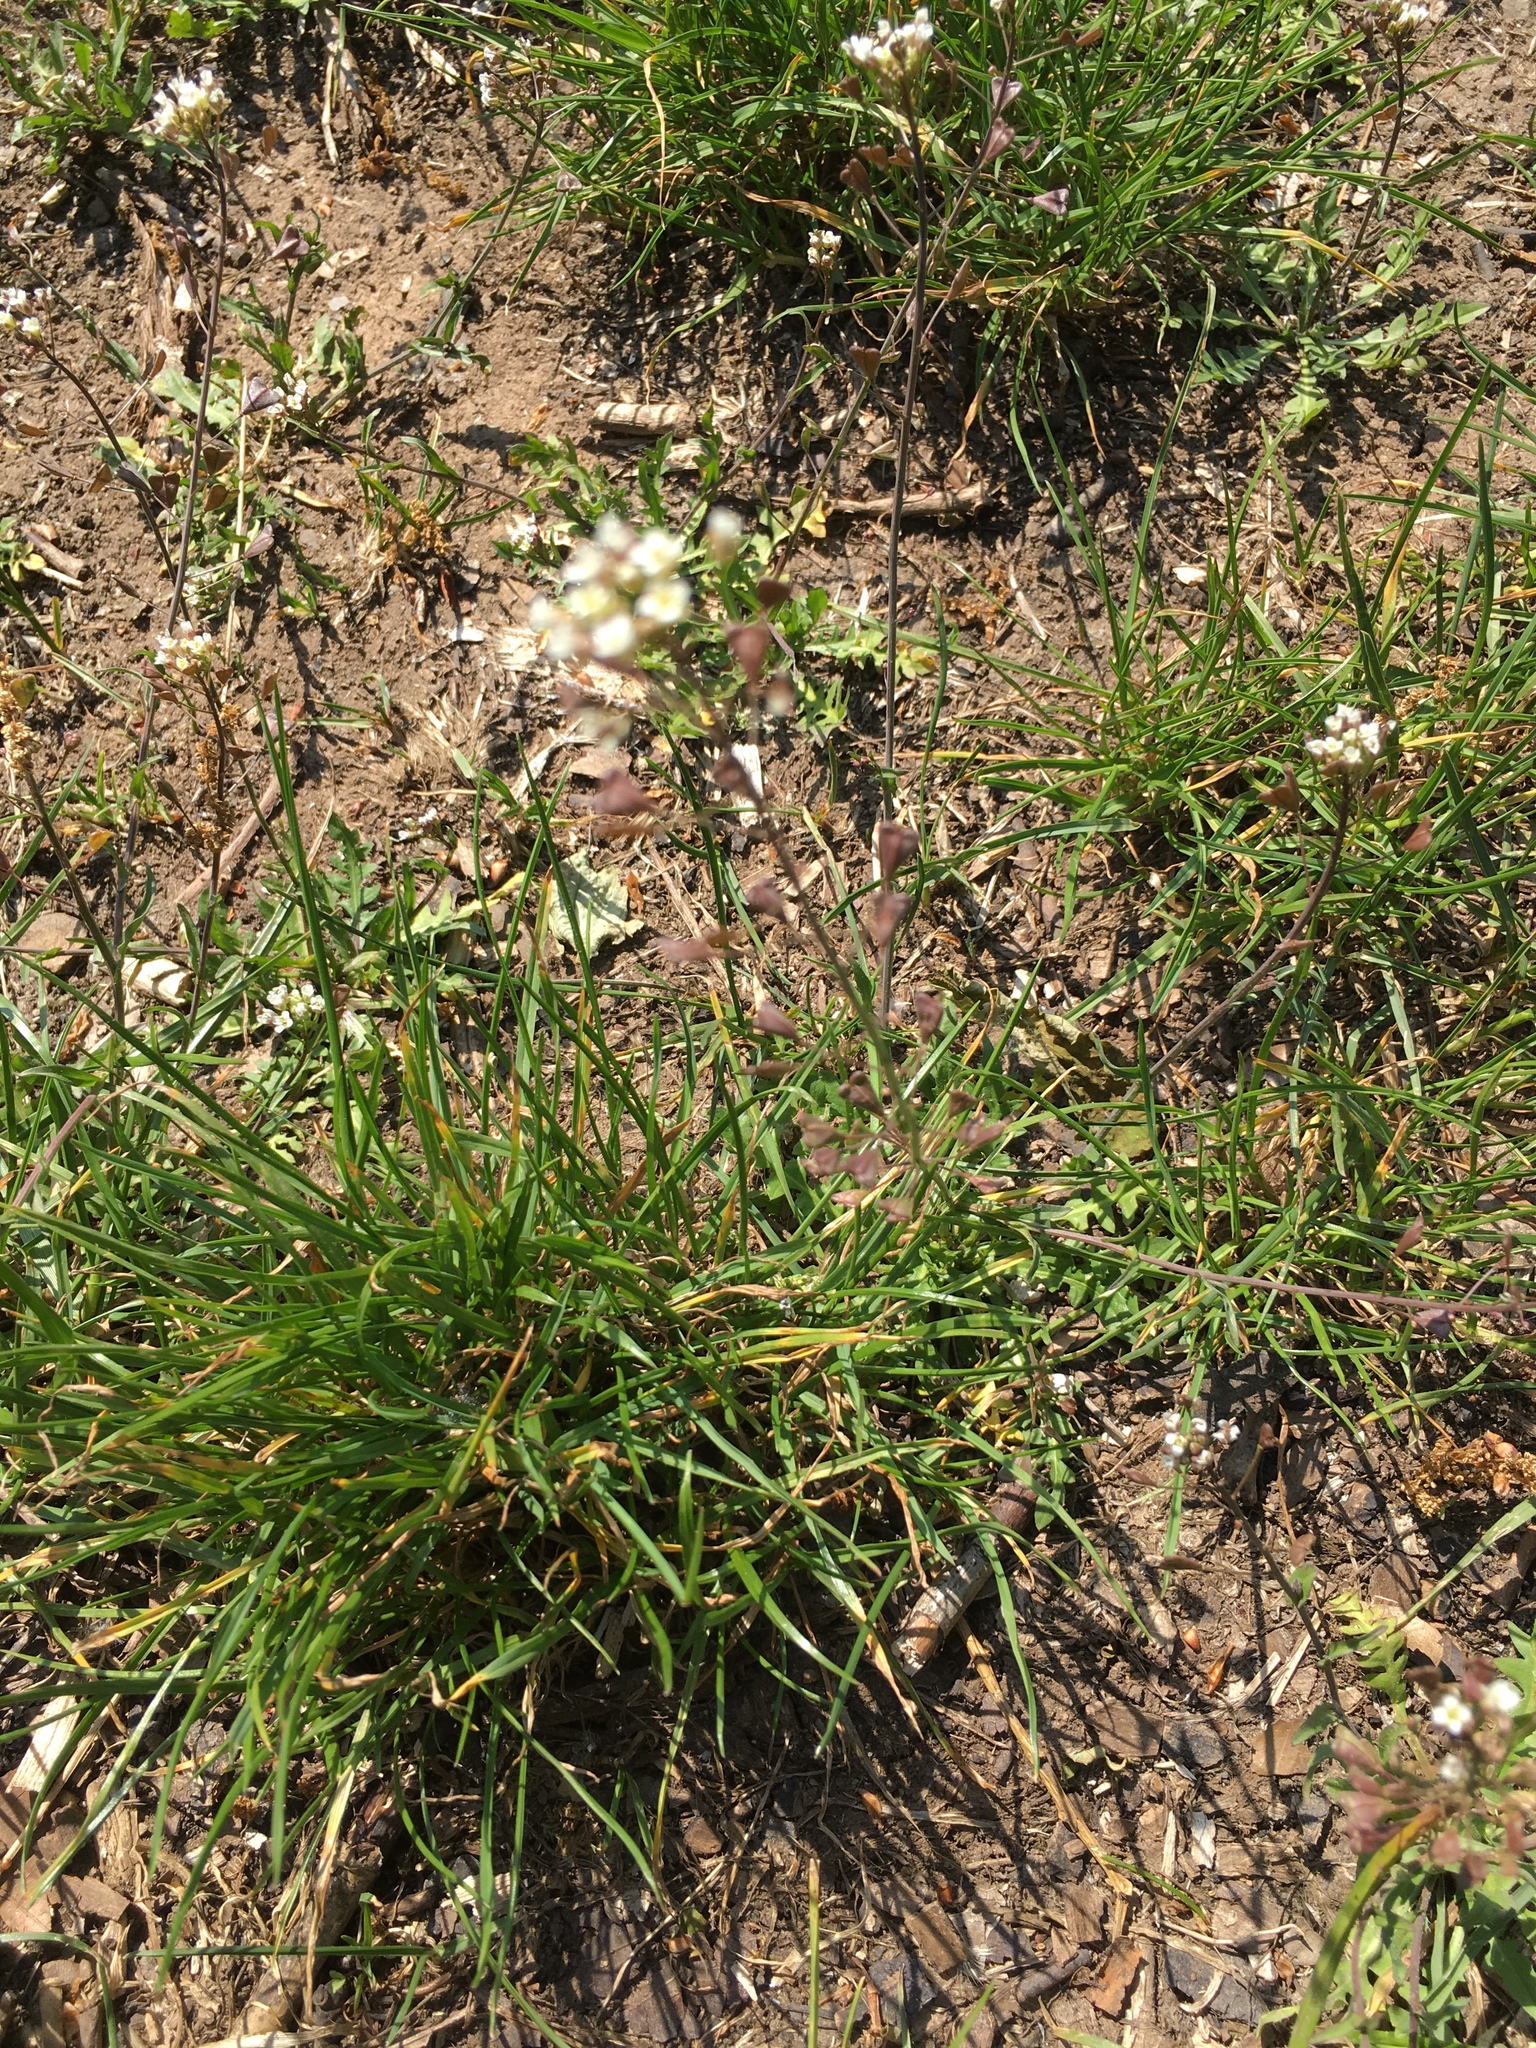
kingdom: Plantae
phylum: Tracheophyta
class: Magnoliopsida
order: Brassicales
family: Brassicaceae
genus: Capsella
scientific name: Capsella bursa-pastoris
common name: Shepherd's purse
